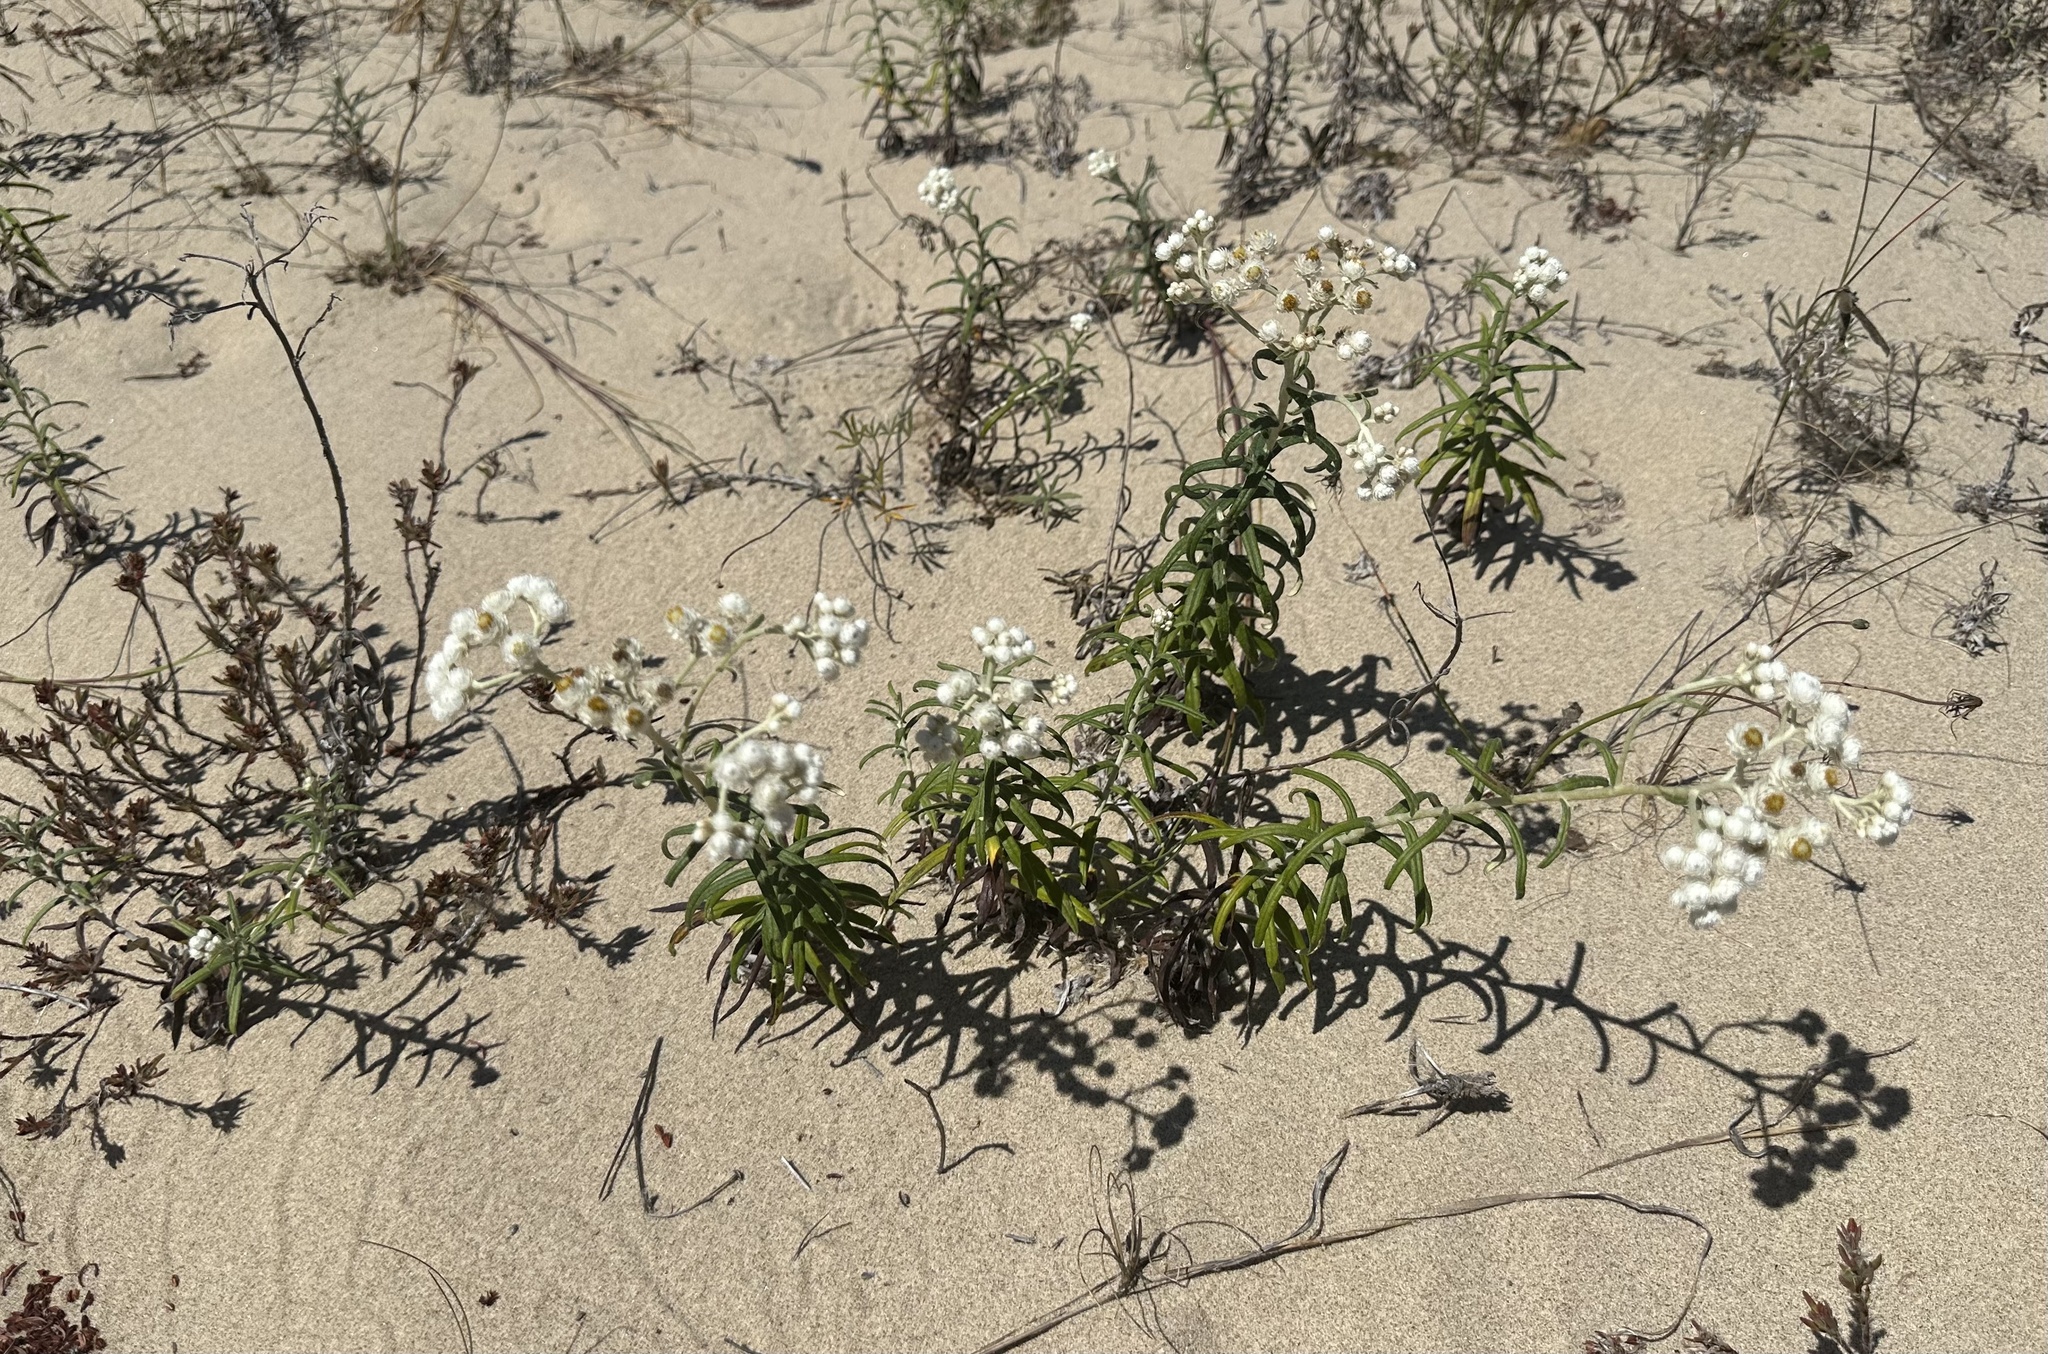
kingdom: Plantae
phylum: Tracheophyta
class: Magnoliopsida
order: Asterales
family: Asteraceae
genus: Anaphalis
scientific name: Anaphalis margaritacea
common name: Pearly everlasting
